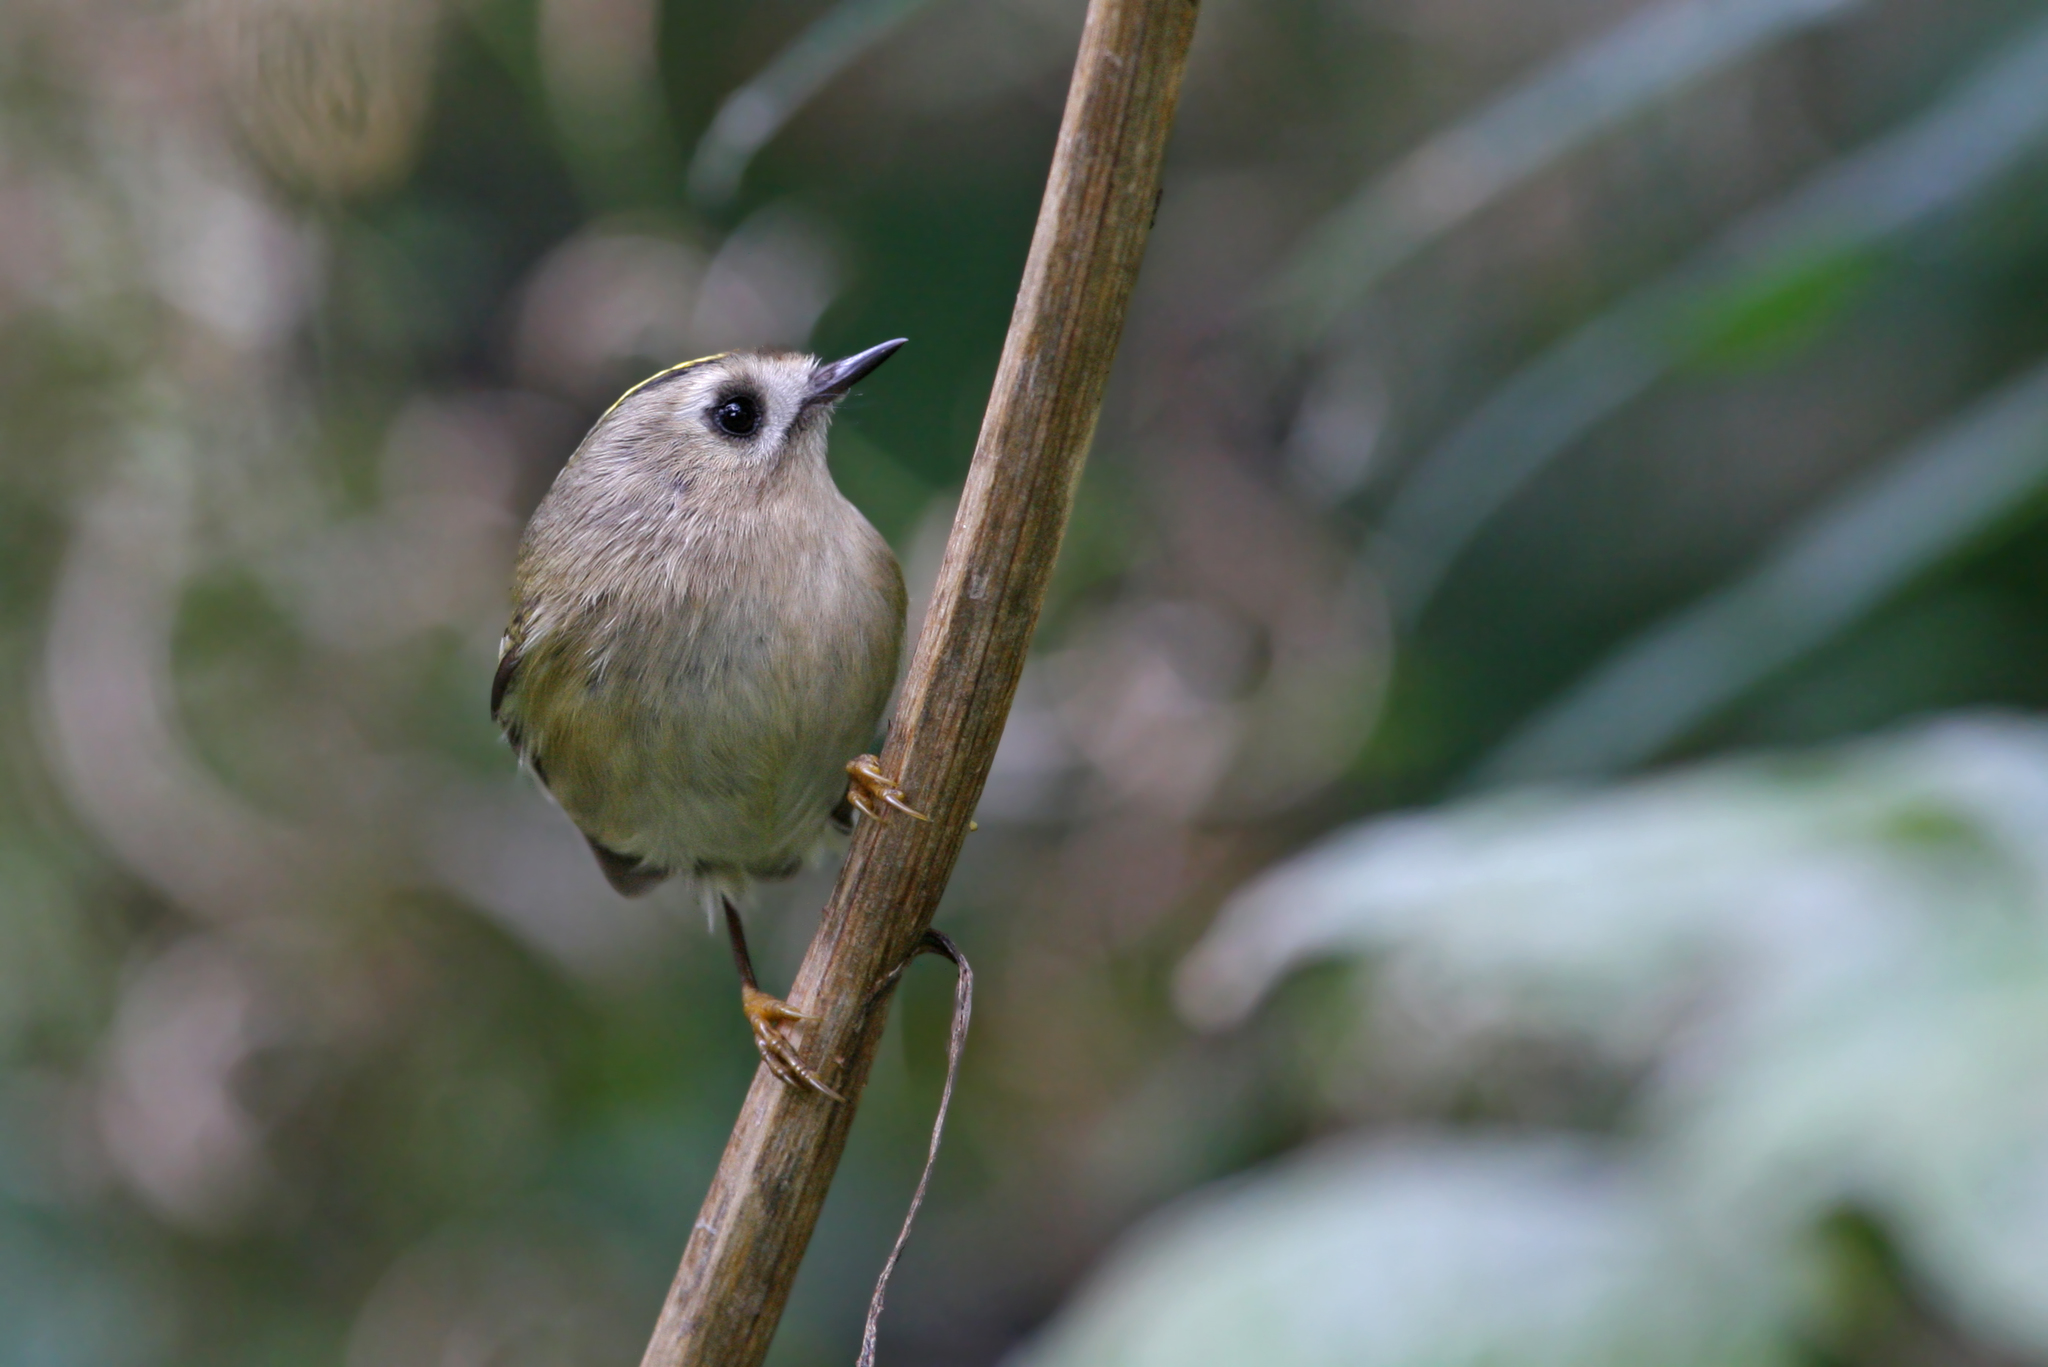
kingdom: Animalia
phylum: Chordata
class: Aves
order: Passeriformes
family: Regulidae
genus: Regulus
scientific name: Regulus regulus
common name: Goldcrest
